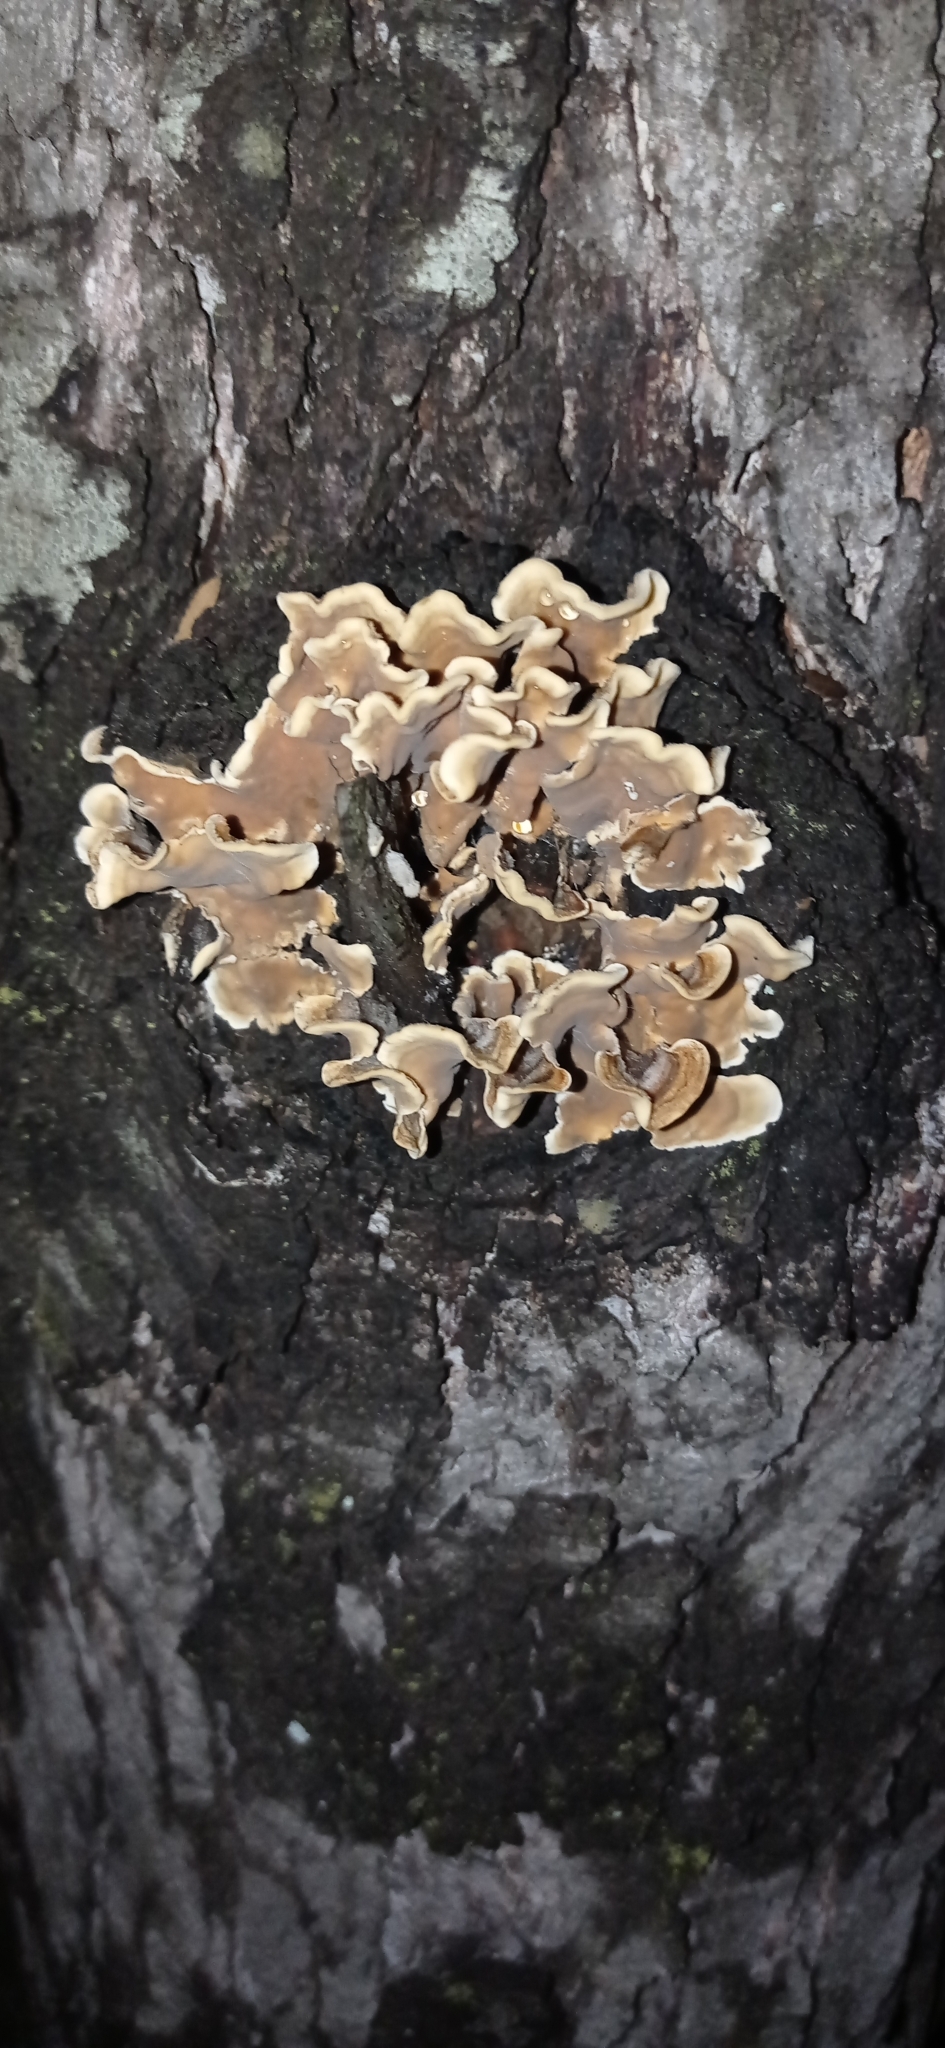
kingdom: Fungi
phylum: Basidiomycota
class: Agaricomycetes
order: Russulales
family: Stereaceae
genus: Stereum
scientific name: Stereum hirsutum
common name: Hairy curtain crust
